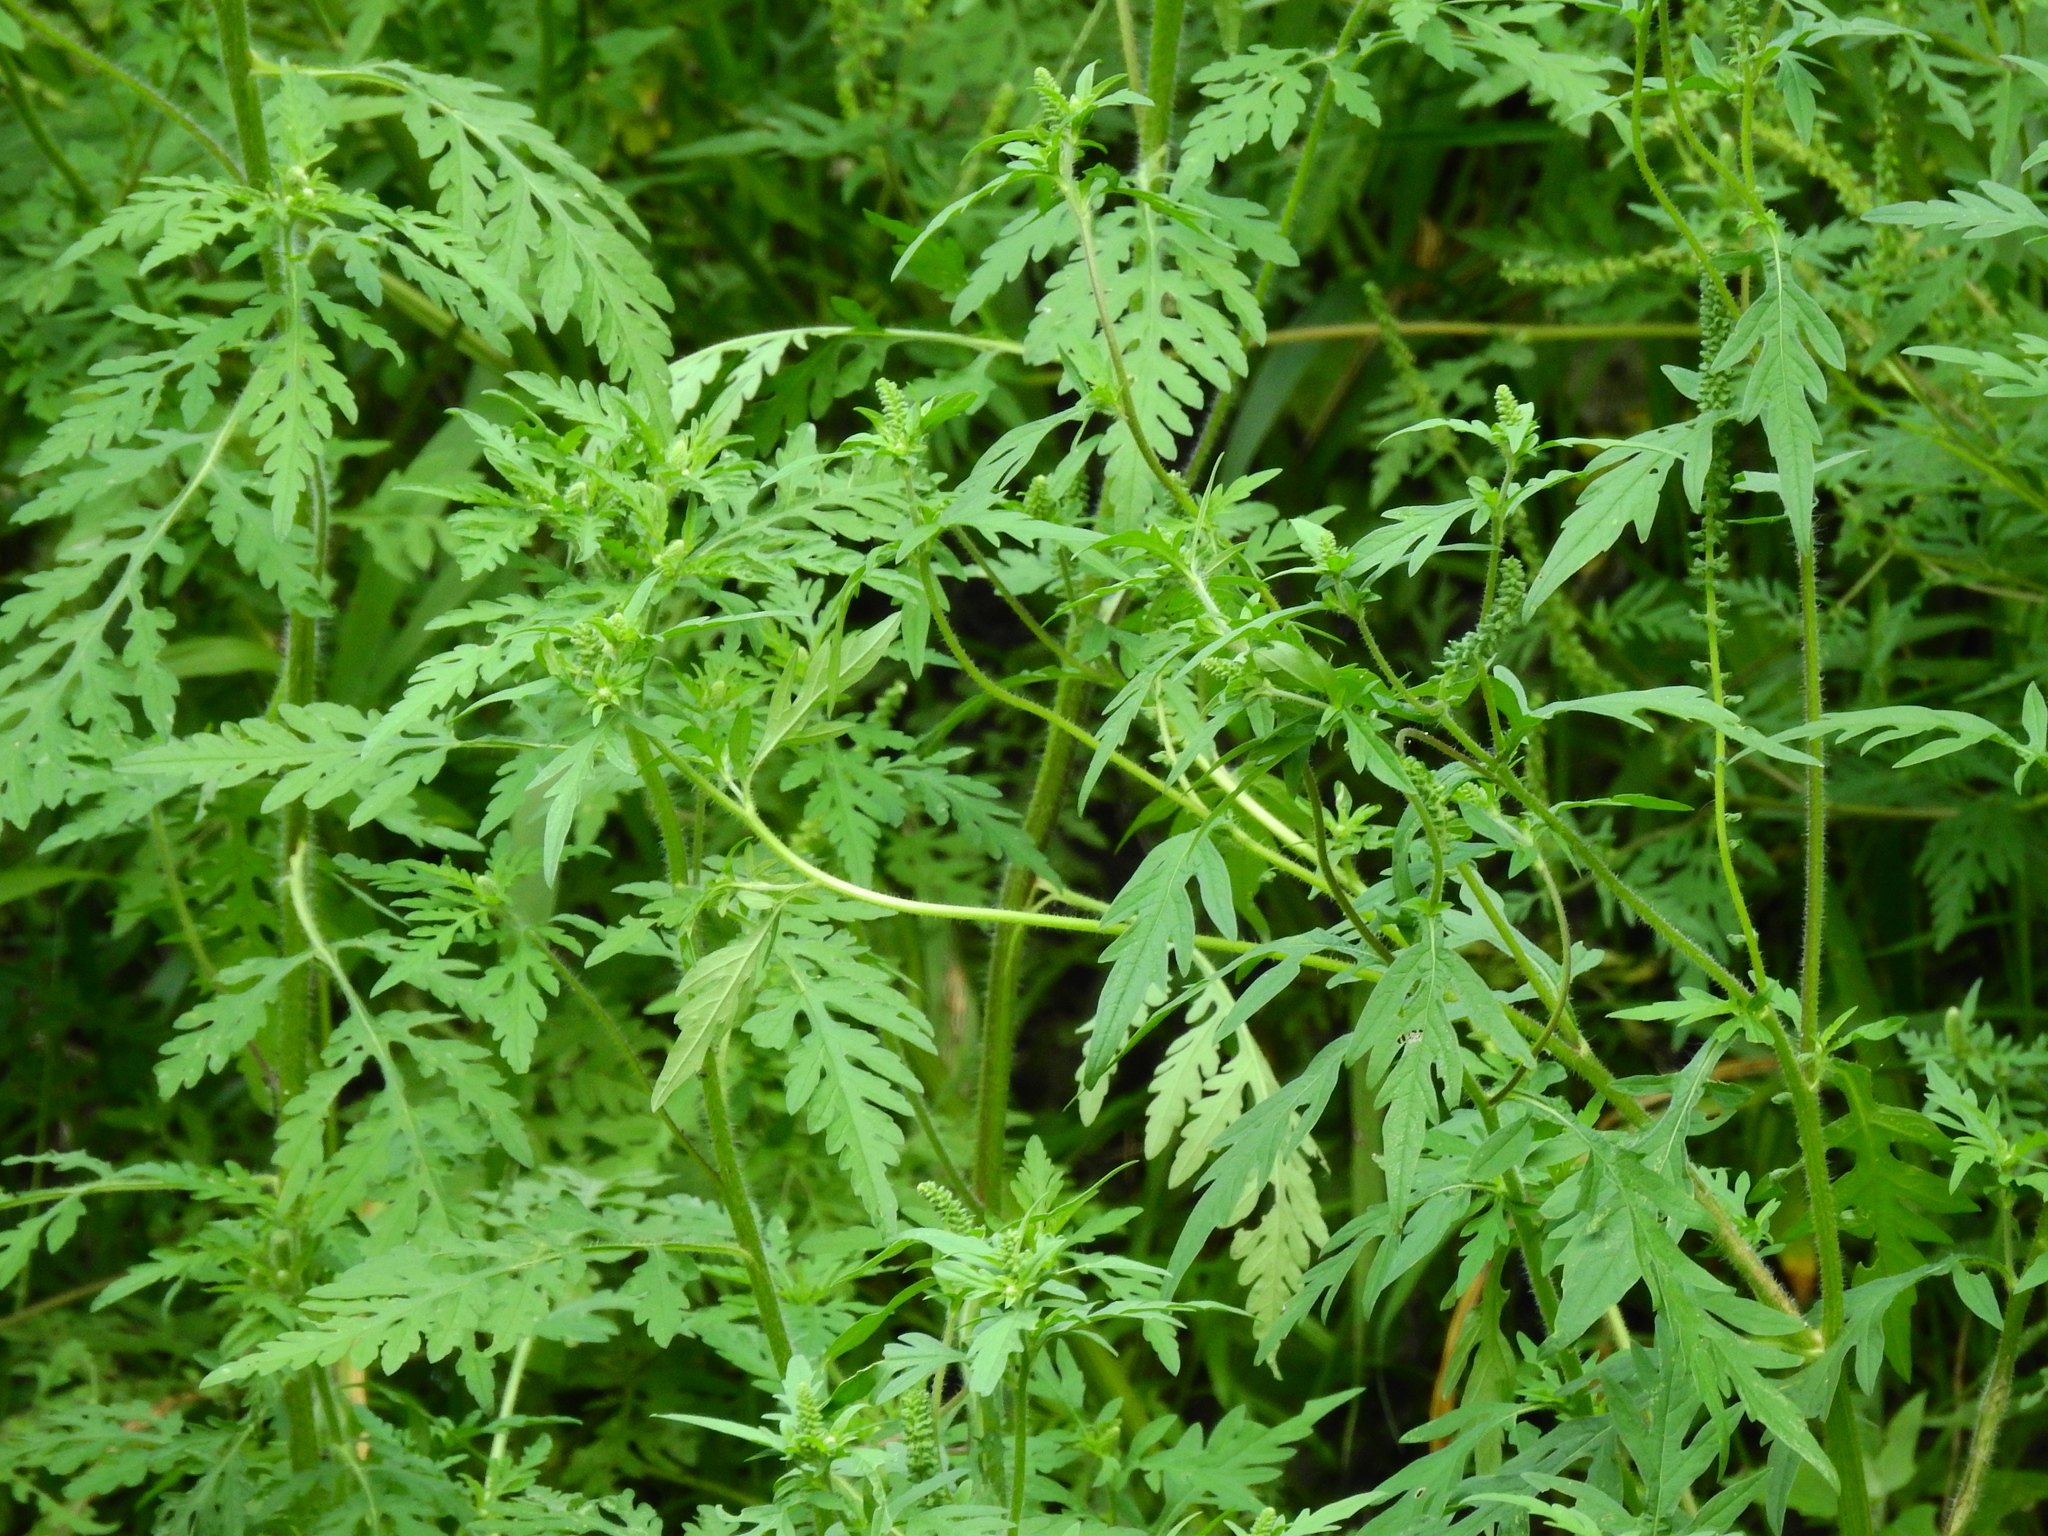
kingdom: Plantae
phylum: Tracheophyta
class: Magnoliopsida
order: Asterales
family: Asteraceae
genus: Ambrosia
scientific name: Ambrosia artemisiifolia
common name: Annual ragweed
